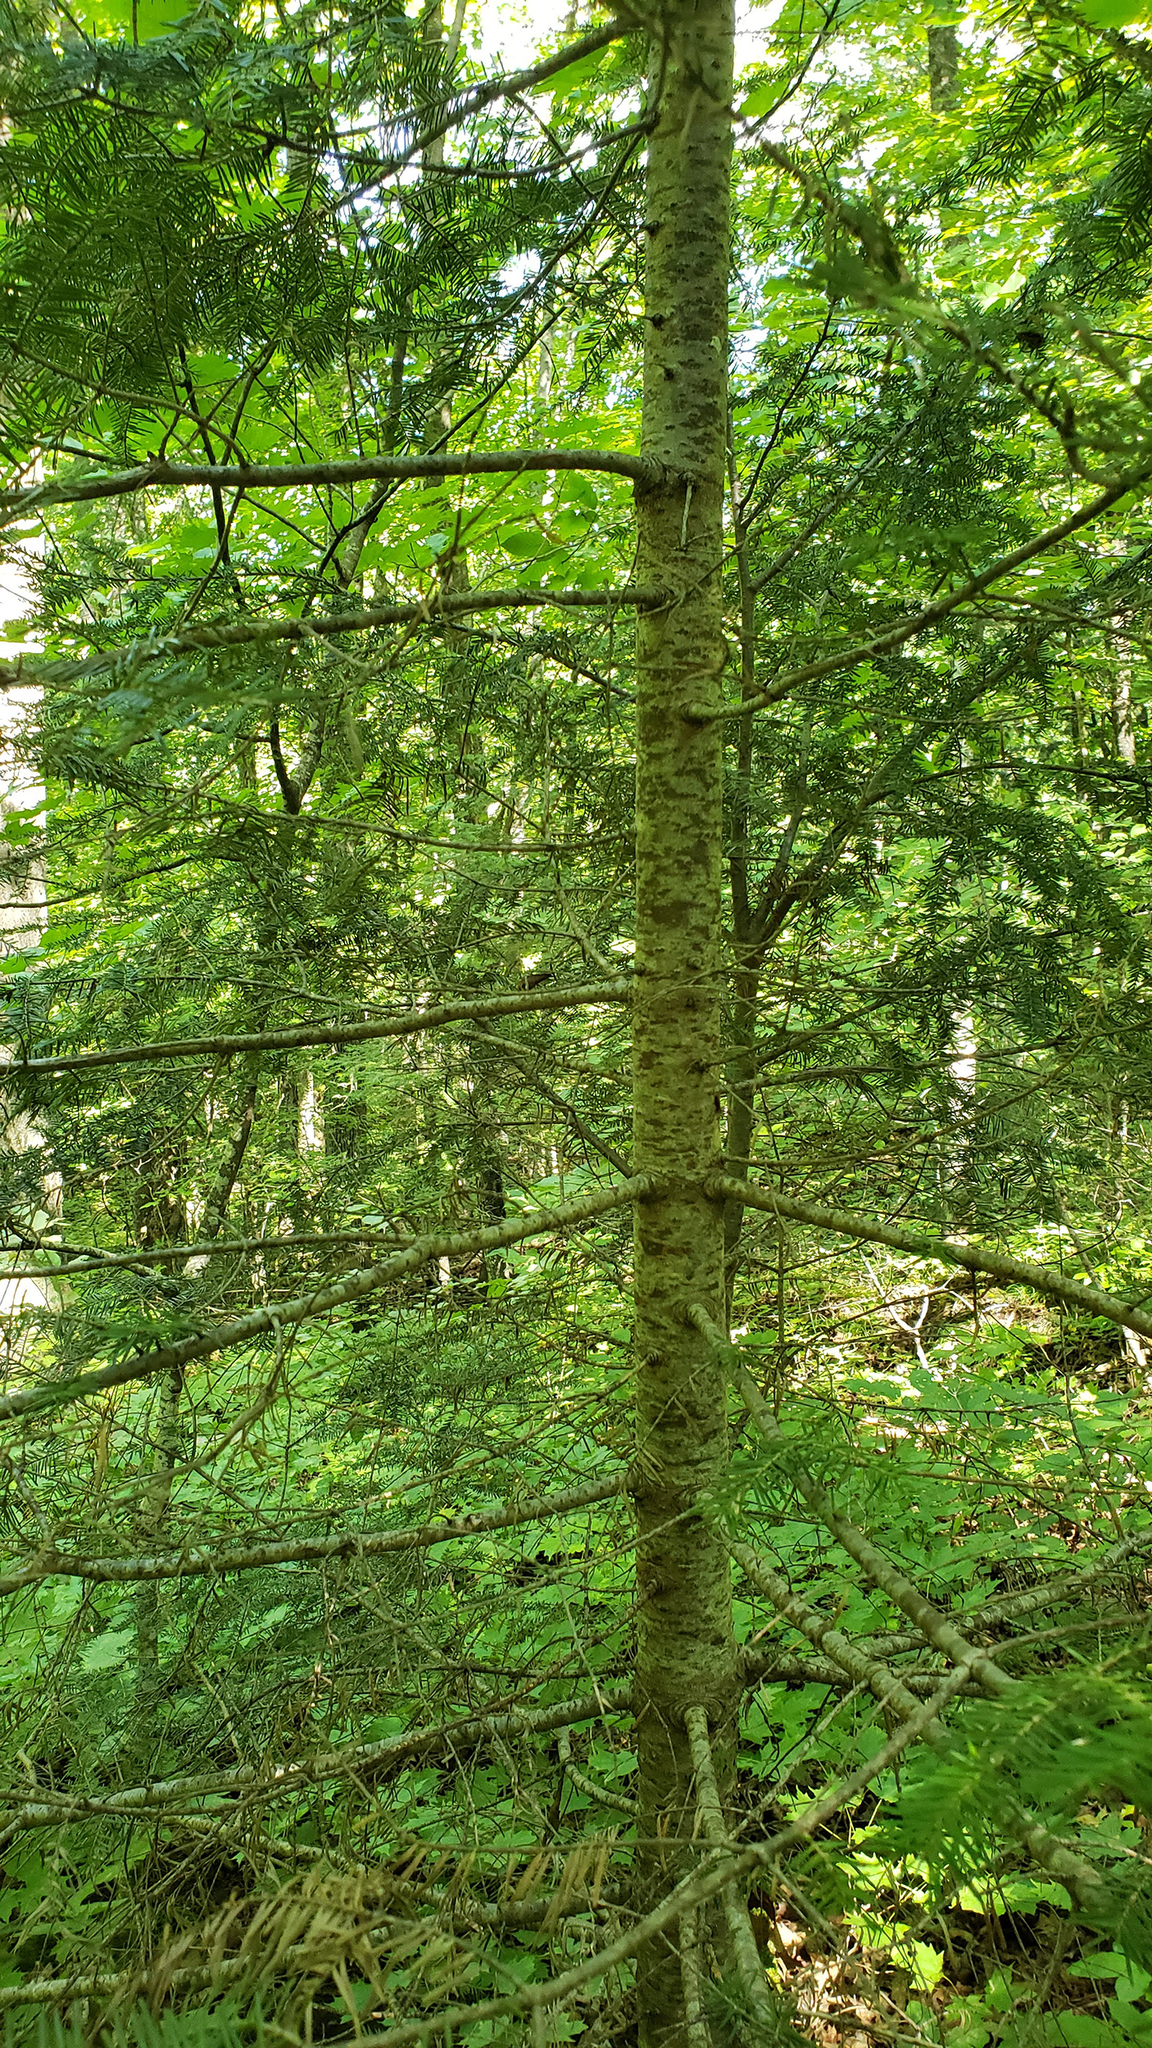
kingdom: Plantae
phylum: Tracheophyta
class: Pinopsida
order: Pinales
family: Pinaceae
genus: Abies
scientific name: Abies balsamea
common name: Balsam fir
